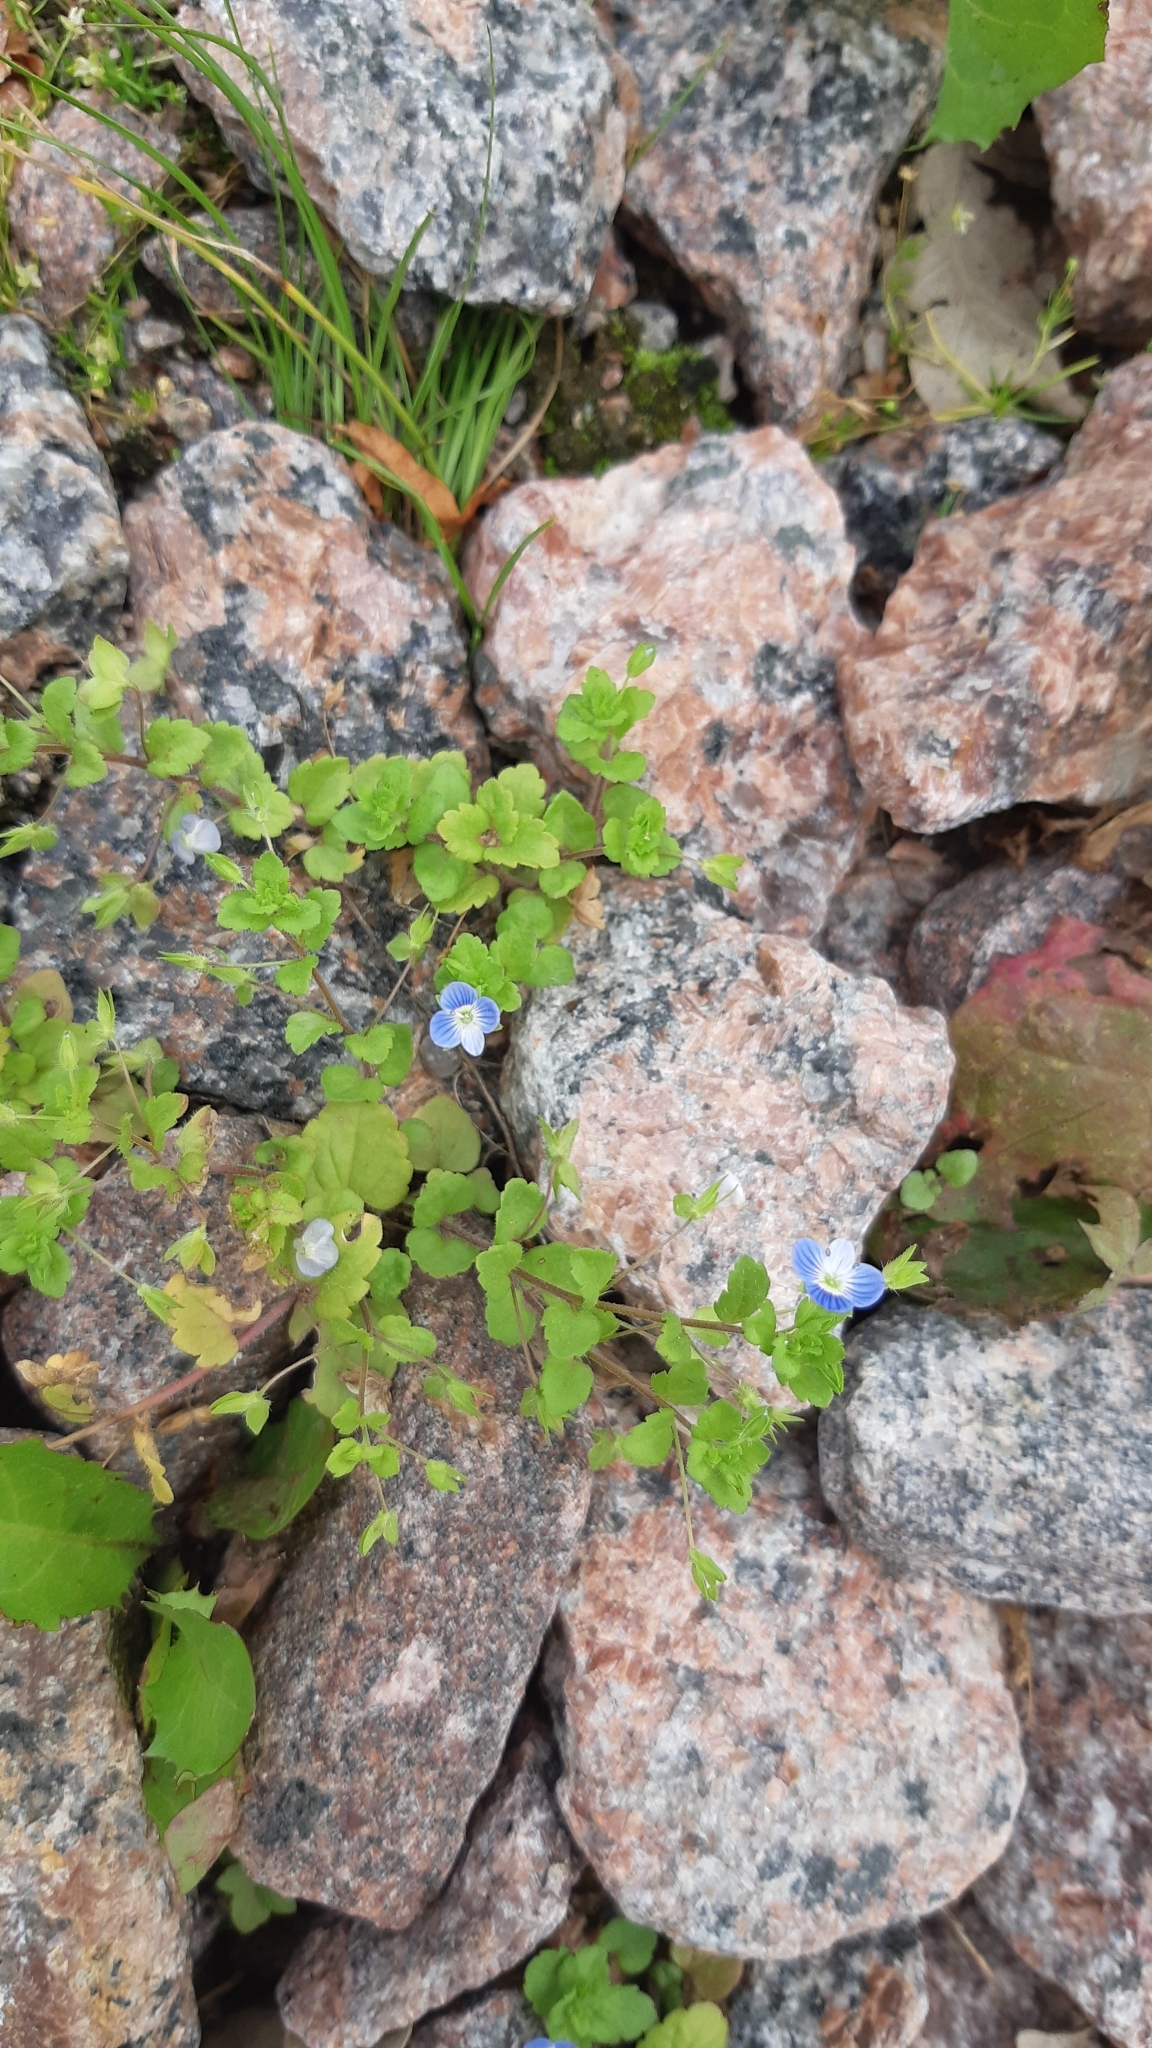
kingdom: Plantae
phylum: Tracheophyta
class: Magnoliopsida
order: Lamiales
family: Plantaginaceae
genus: Veronica
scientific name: Veronica persica
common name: Common field-speedwell
